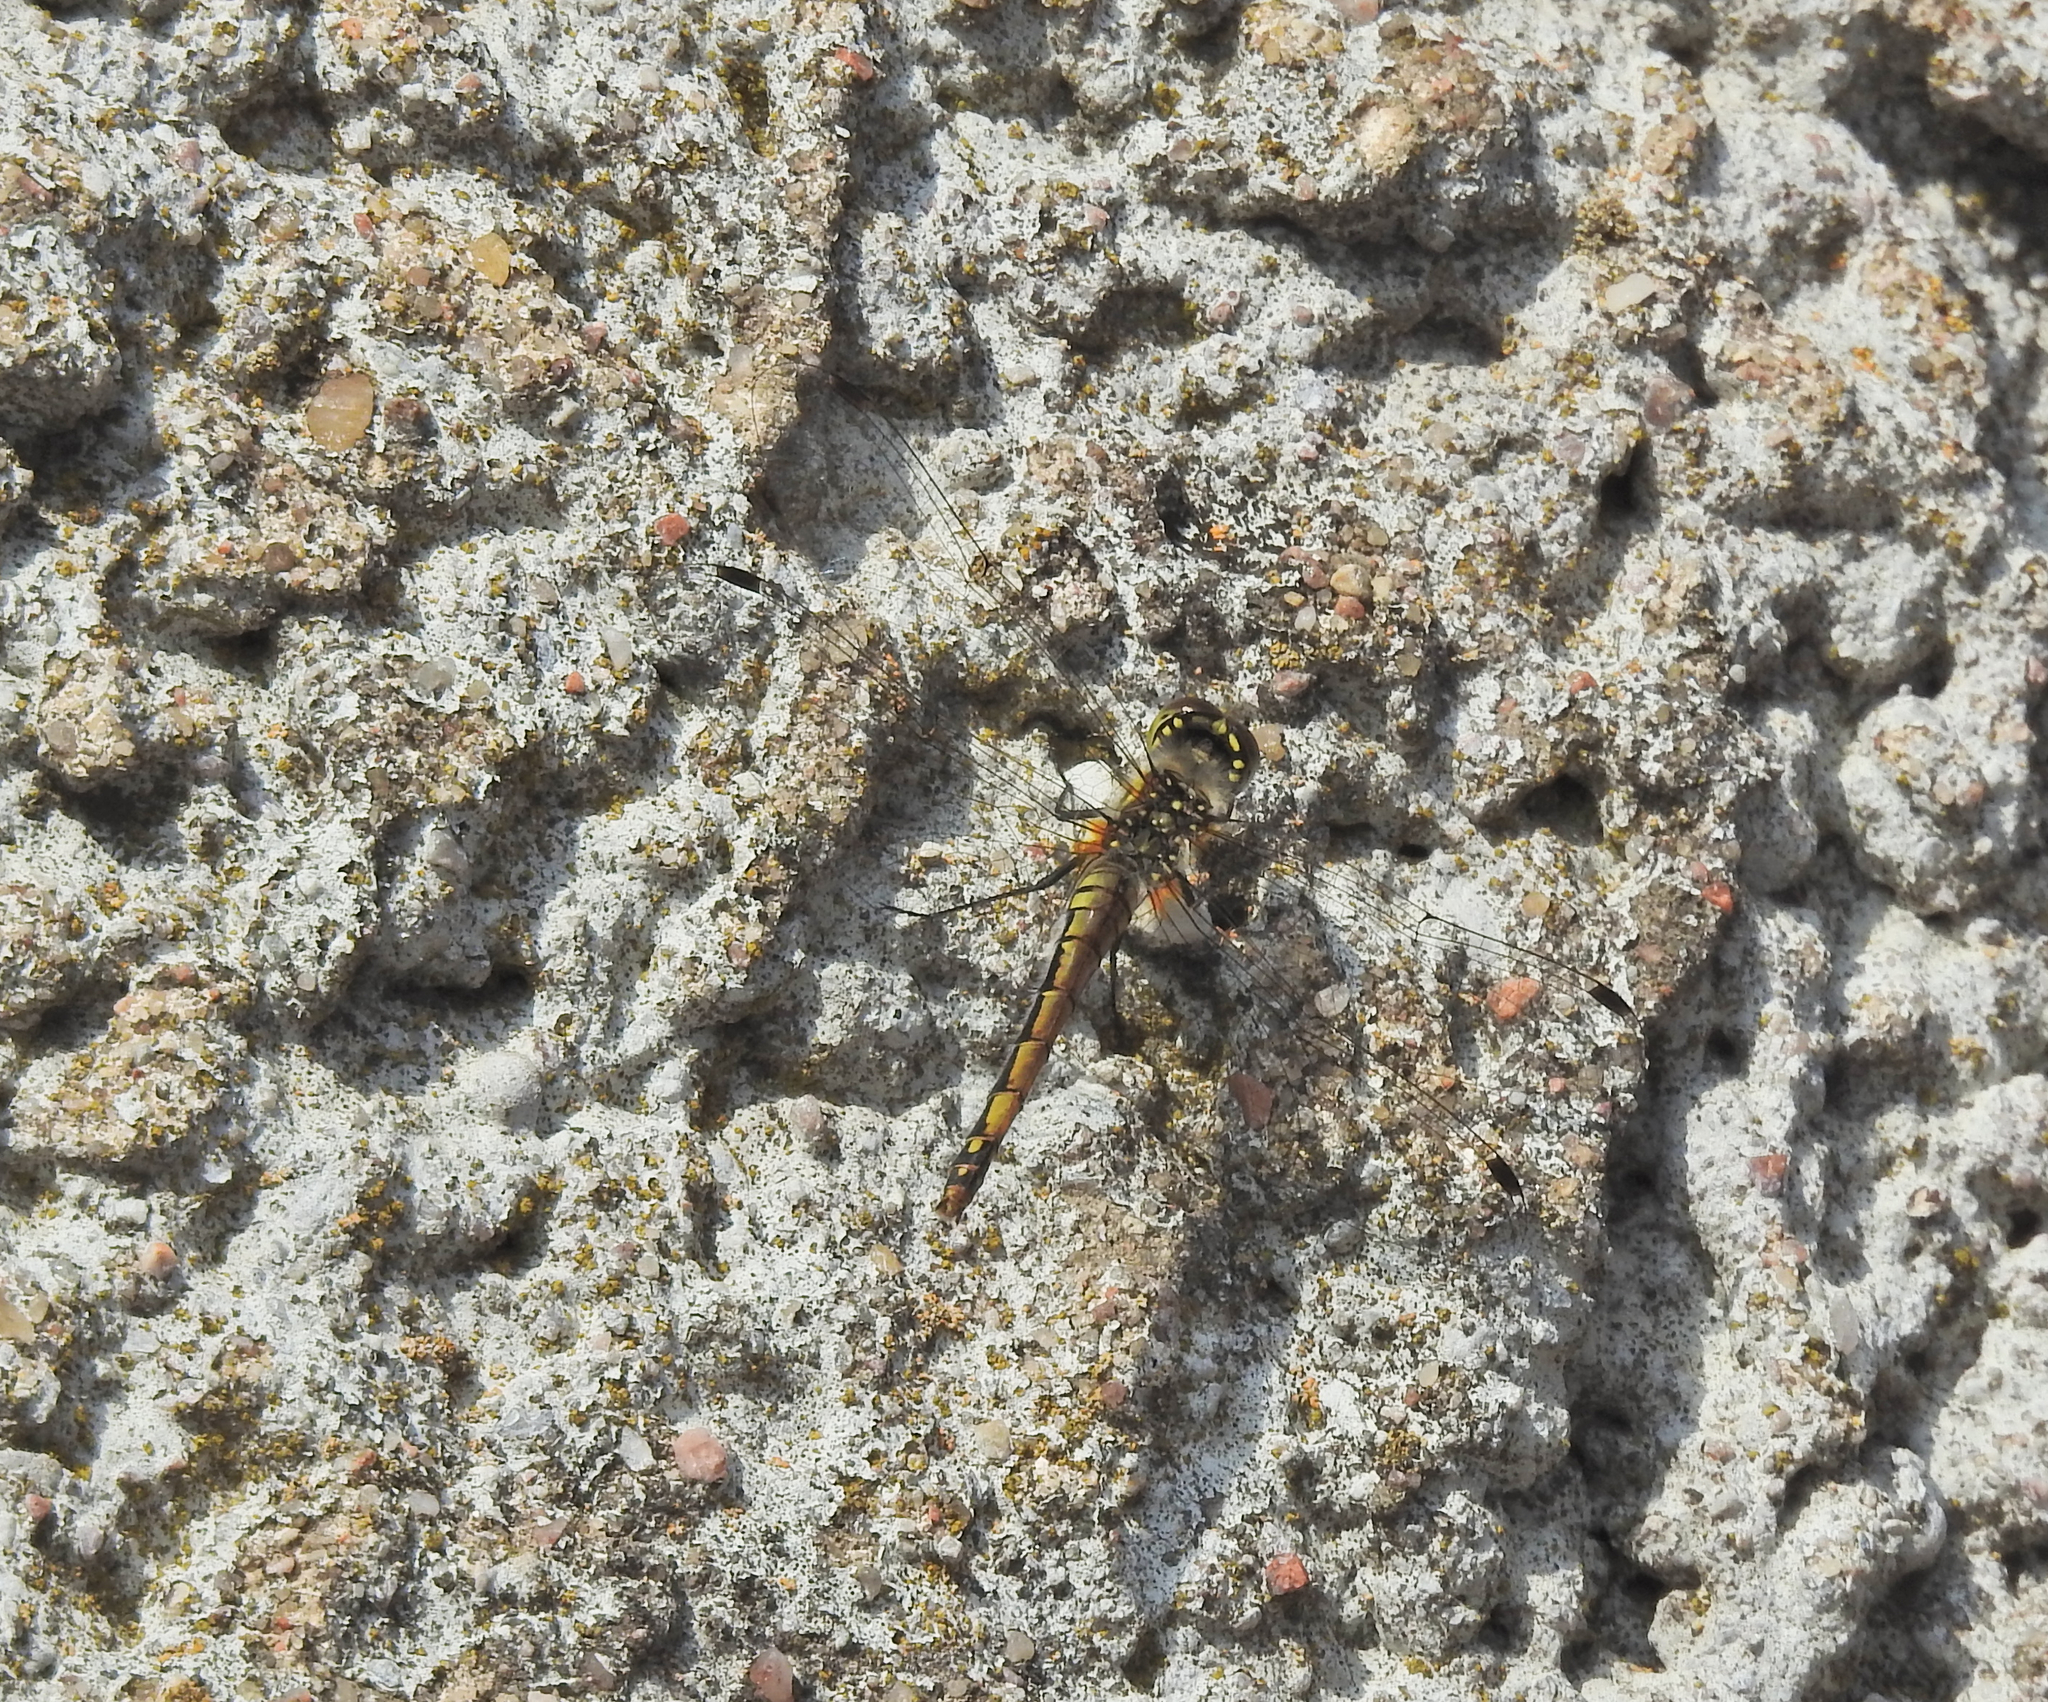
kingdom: Animalia
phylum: Arthropoda
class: Insecta
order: Odonata
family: Libellulidae
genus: Sympetrum
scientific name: Sympetrum danae
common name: Black darter
